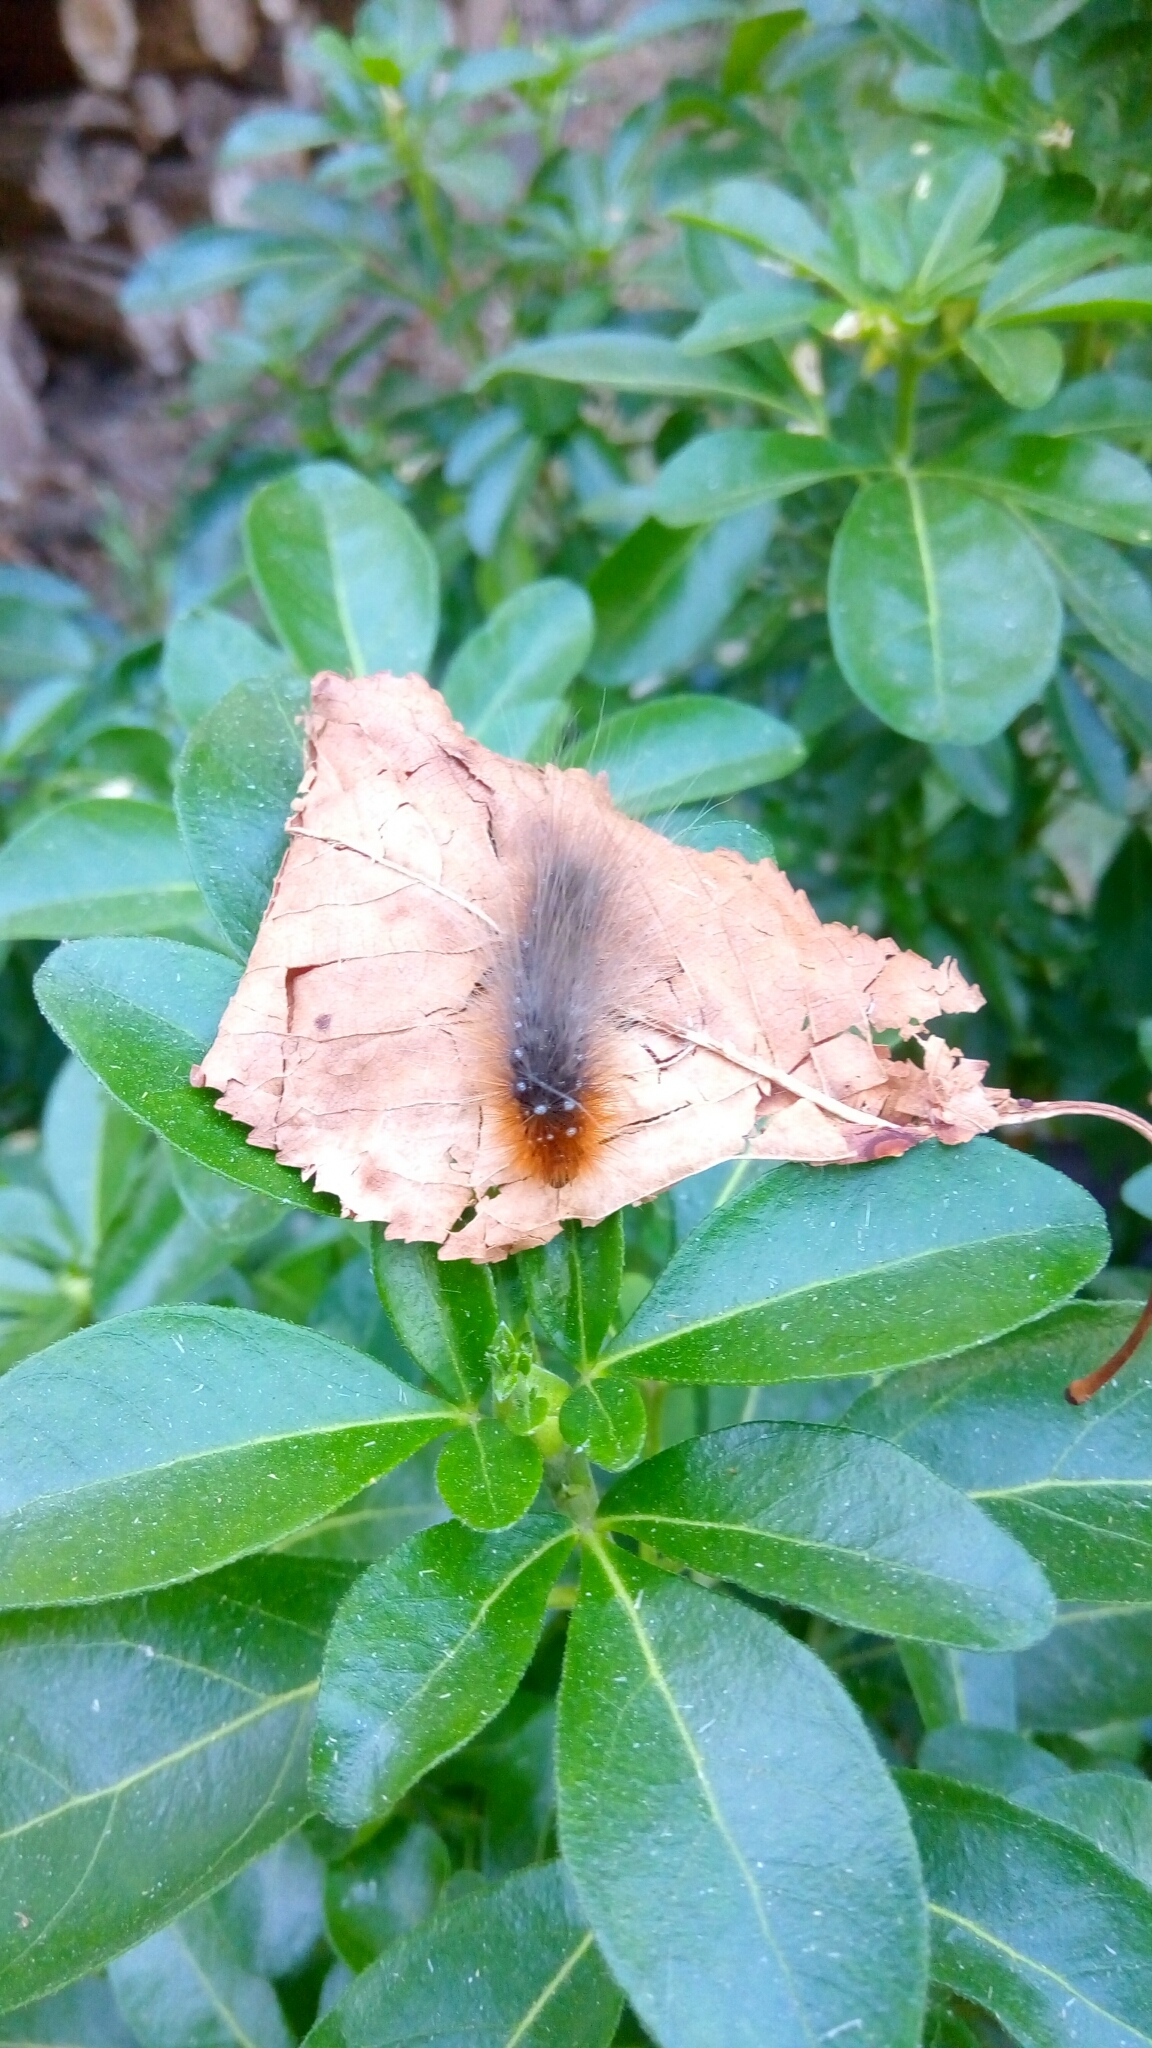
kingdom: Animalia
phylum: Arthropoda
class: Insecta
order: Lepidoptera
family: Erebidae
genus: Arctia
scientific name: Arctia caja
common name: Garden tiger
